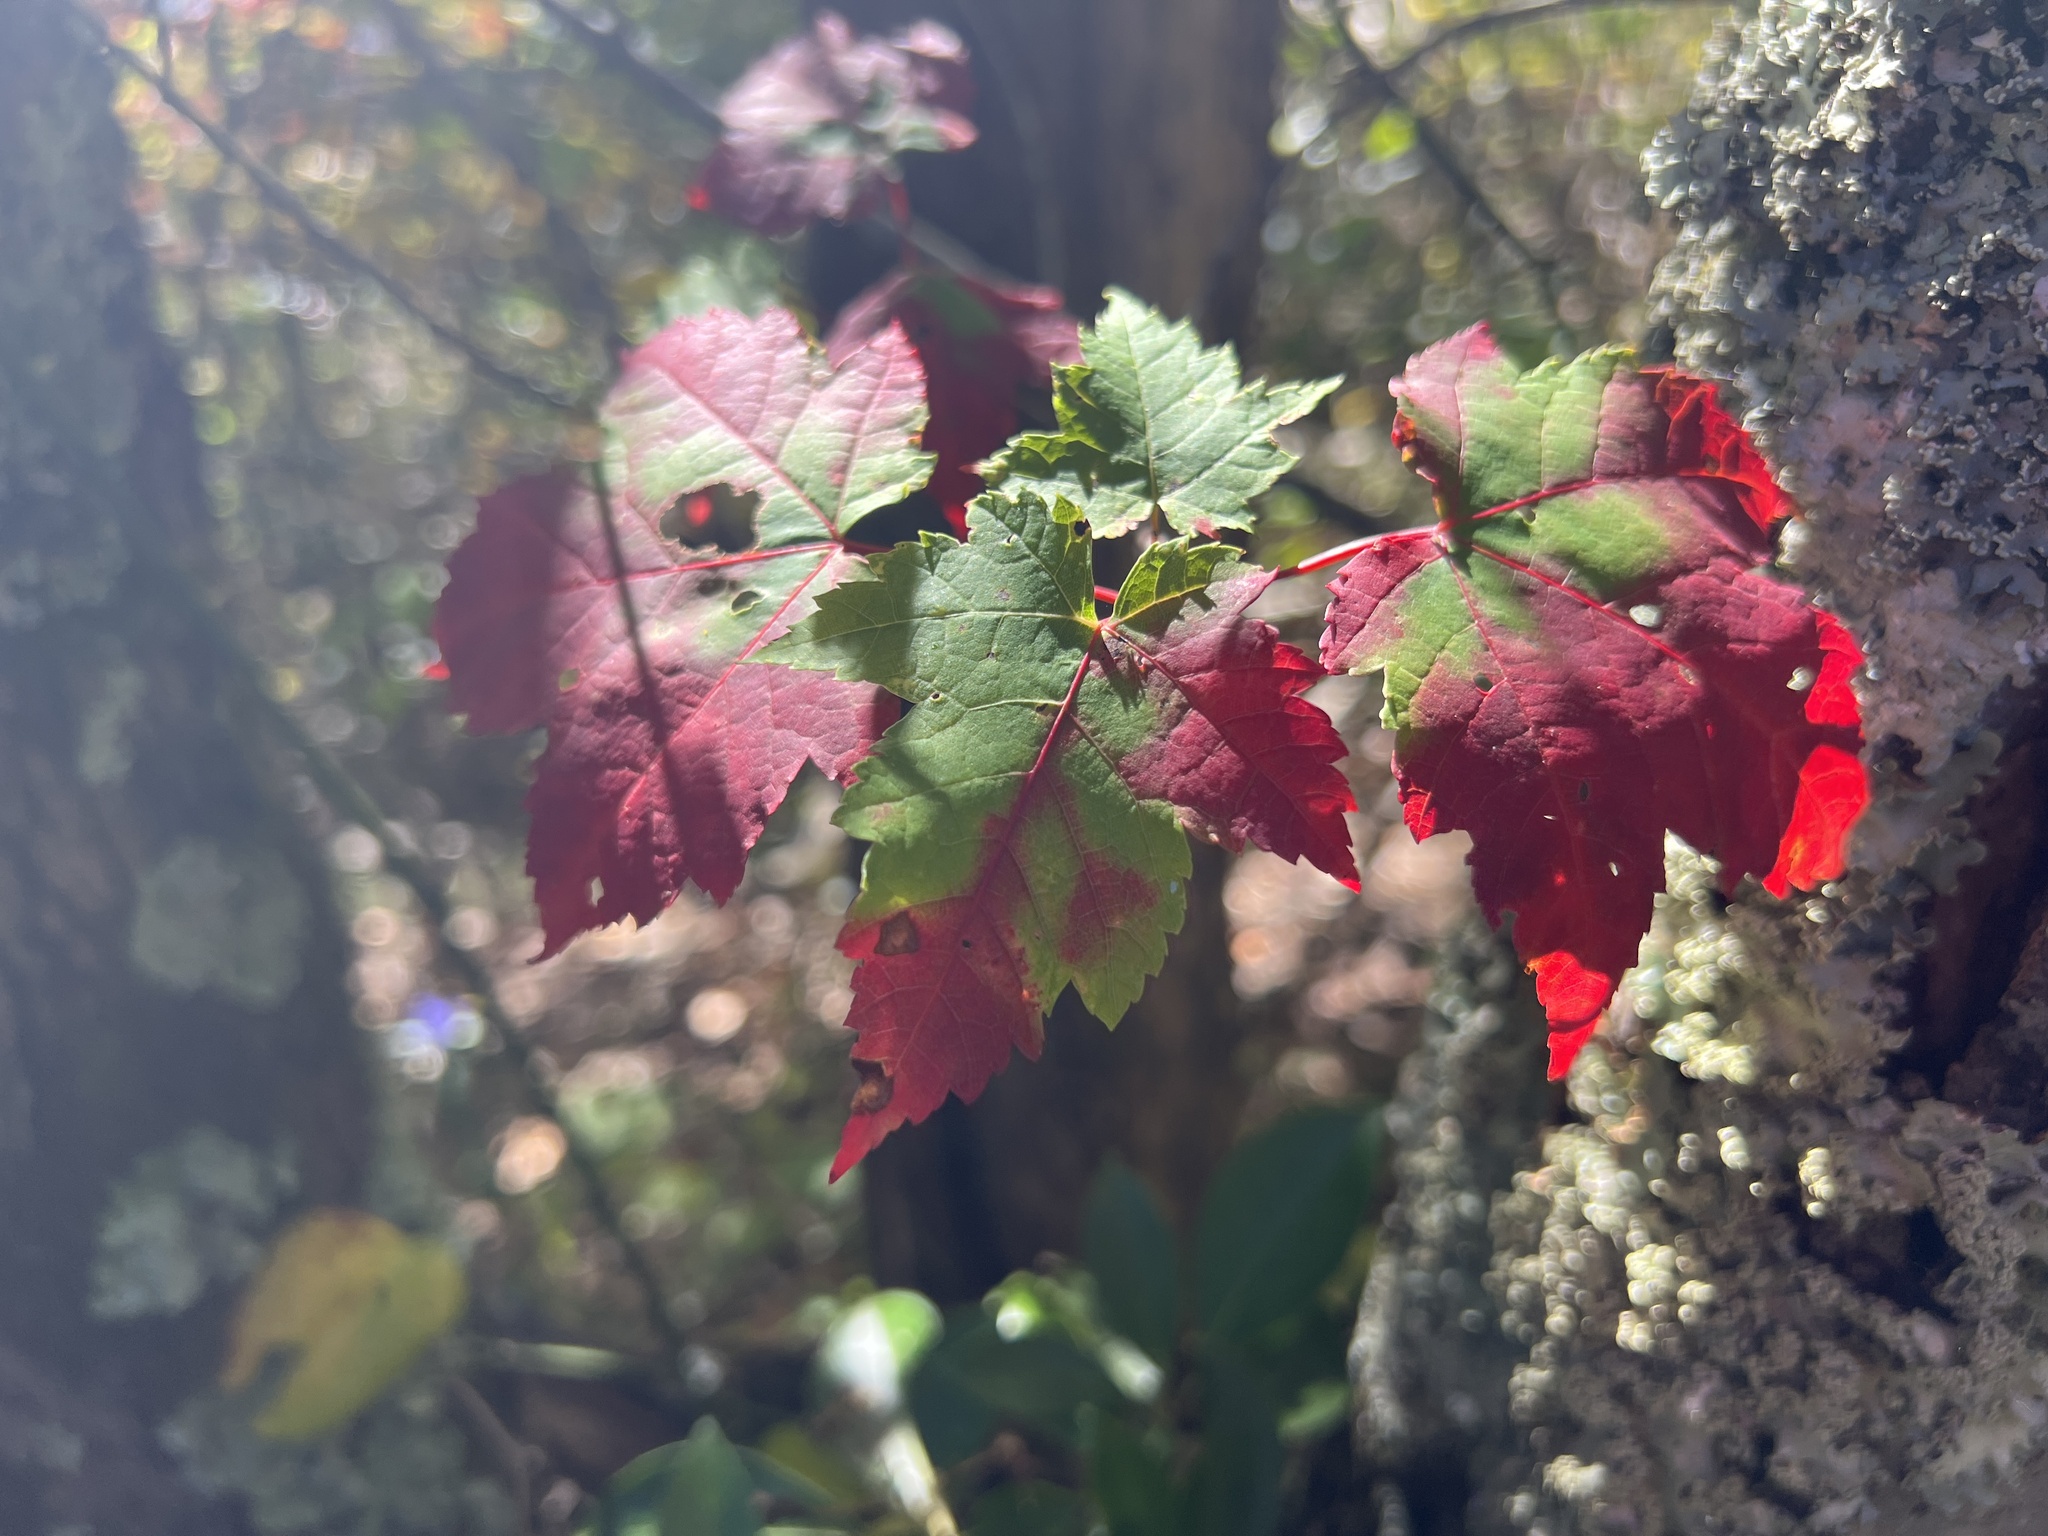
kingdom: Plantae
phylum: Tracheophyta
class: Magnoliopsida
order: Sapindales
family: Sapindaceae
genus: Acer
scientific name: Acer rubrum
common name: Red maple
